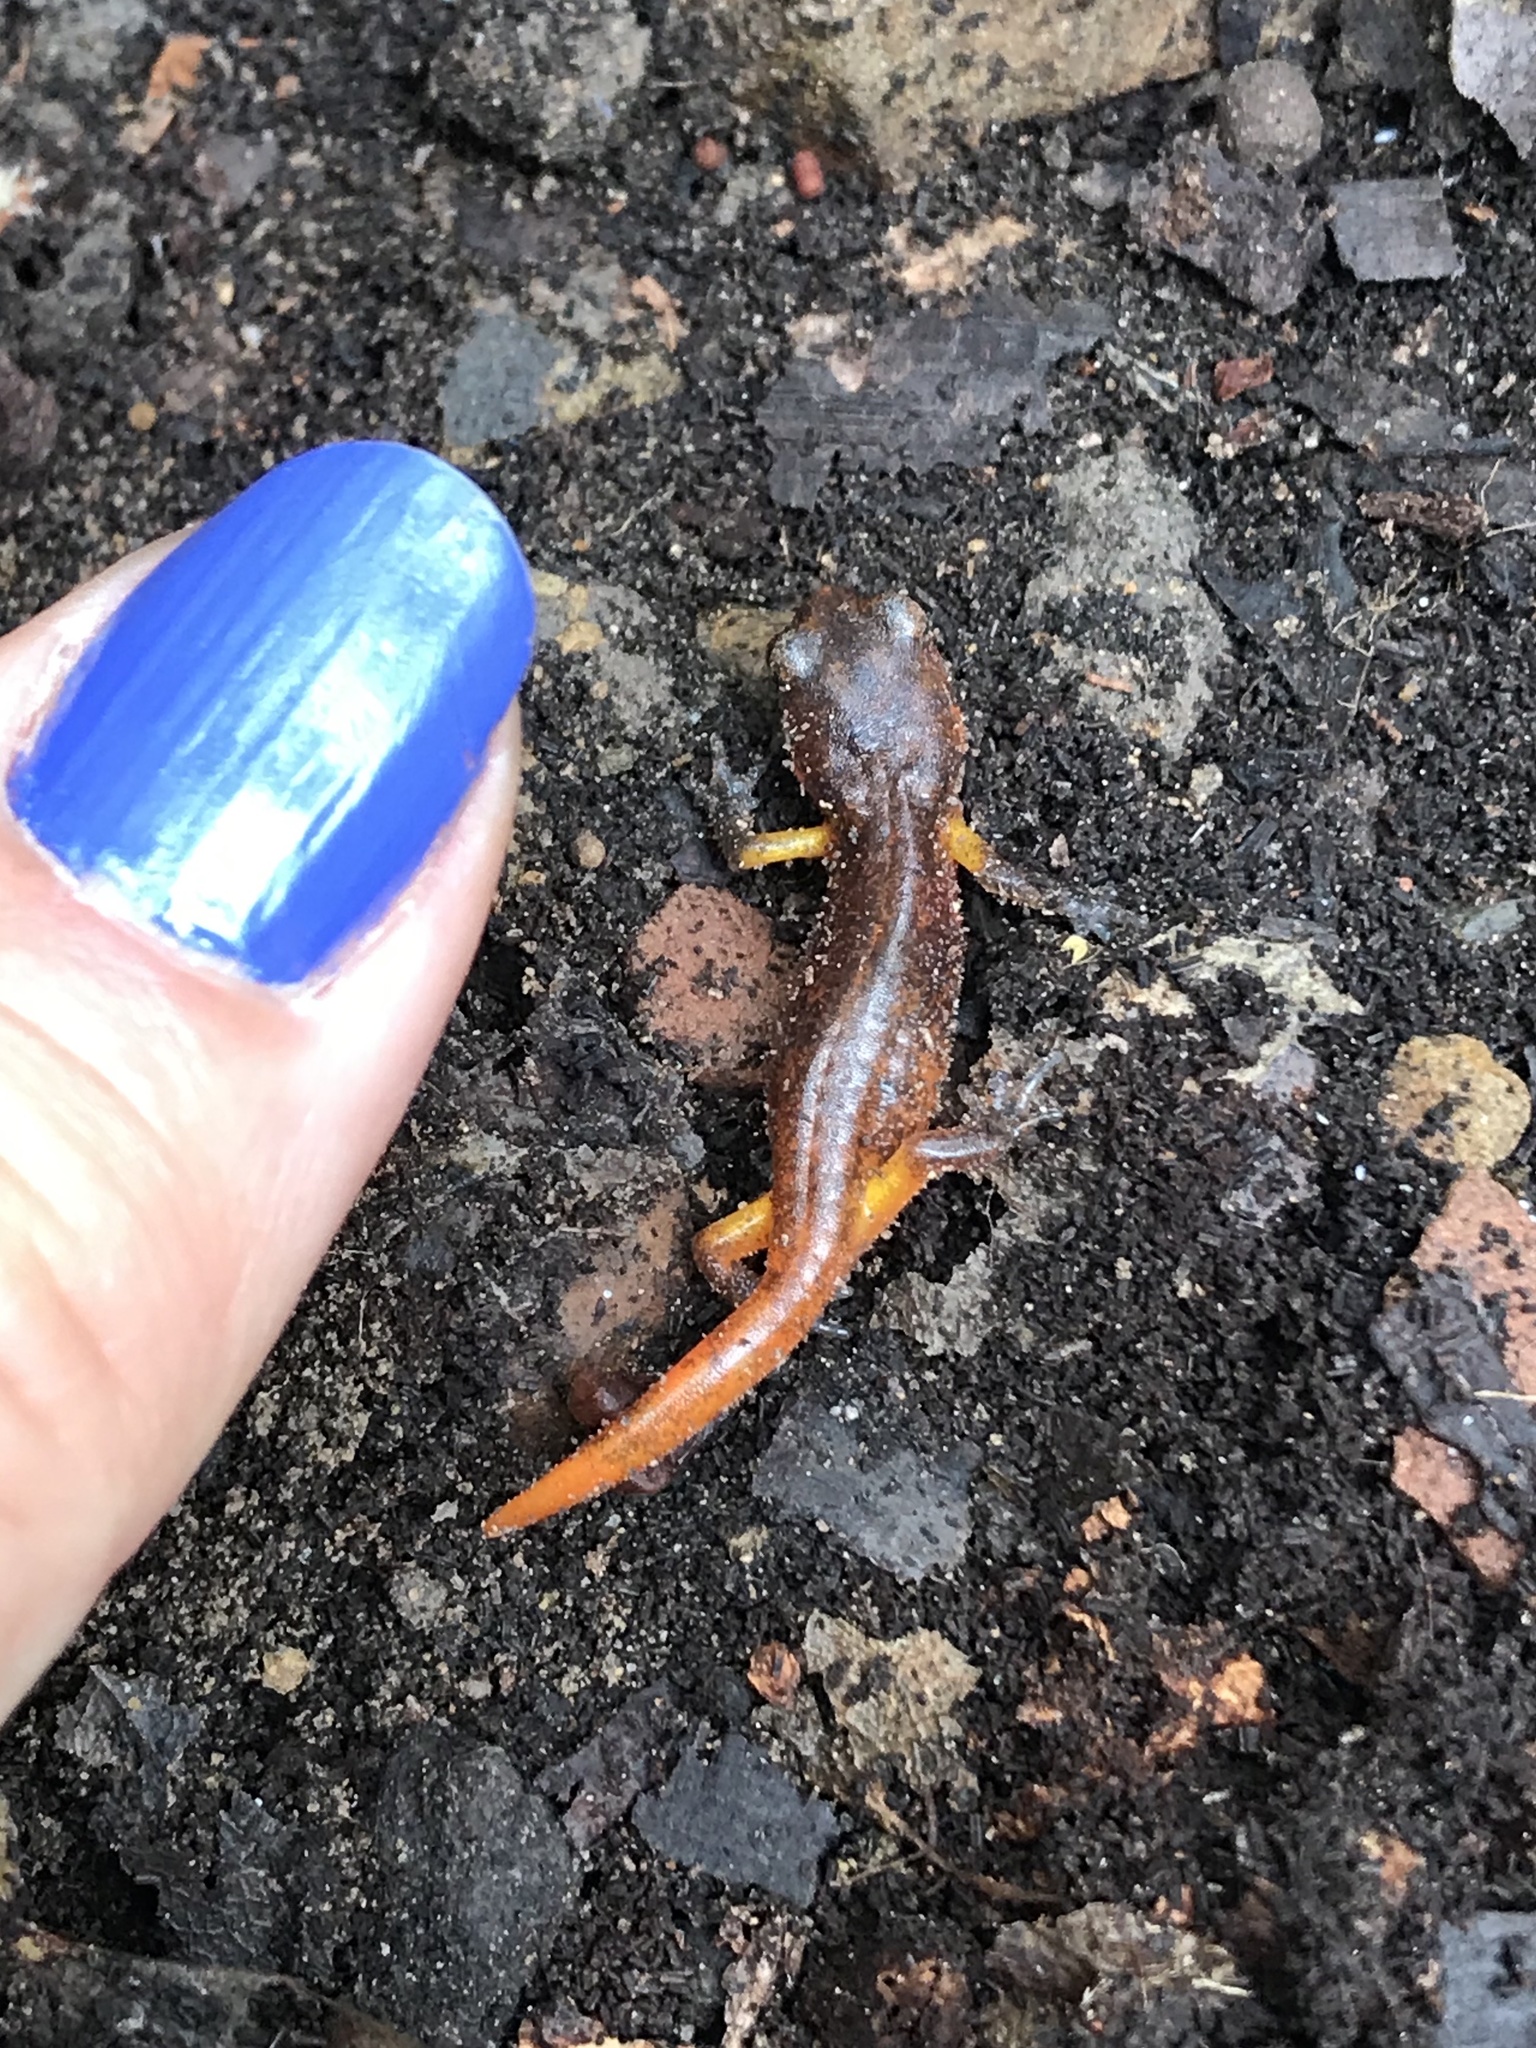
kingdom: Animalia
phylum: Chordata
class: Amphibia
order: Caudata
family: Plethodontidae
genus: Ensatina
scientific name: Ensatina eschscholtzii
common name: Ensatina
